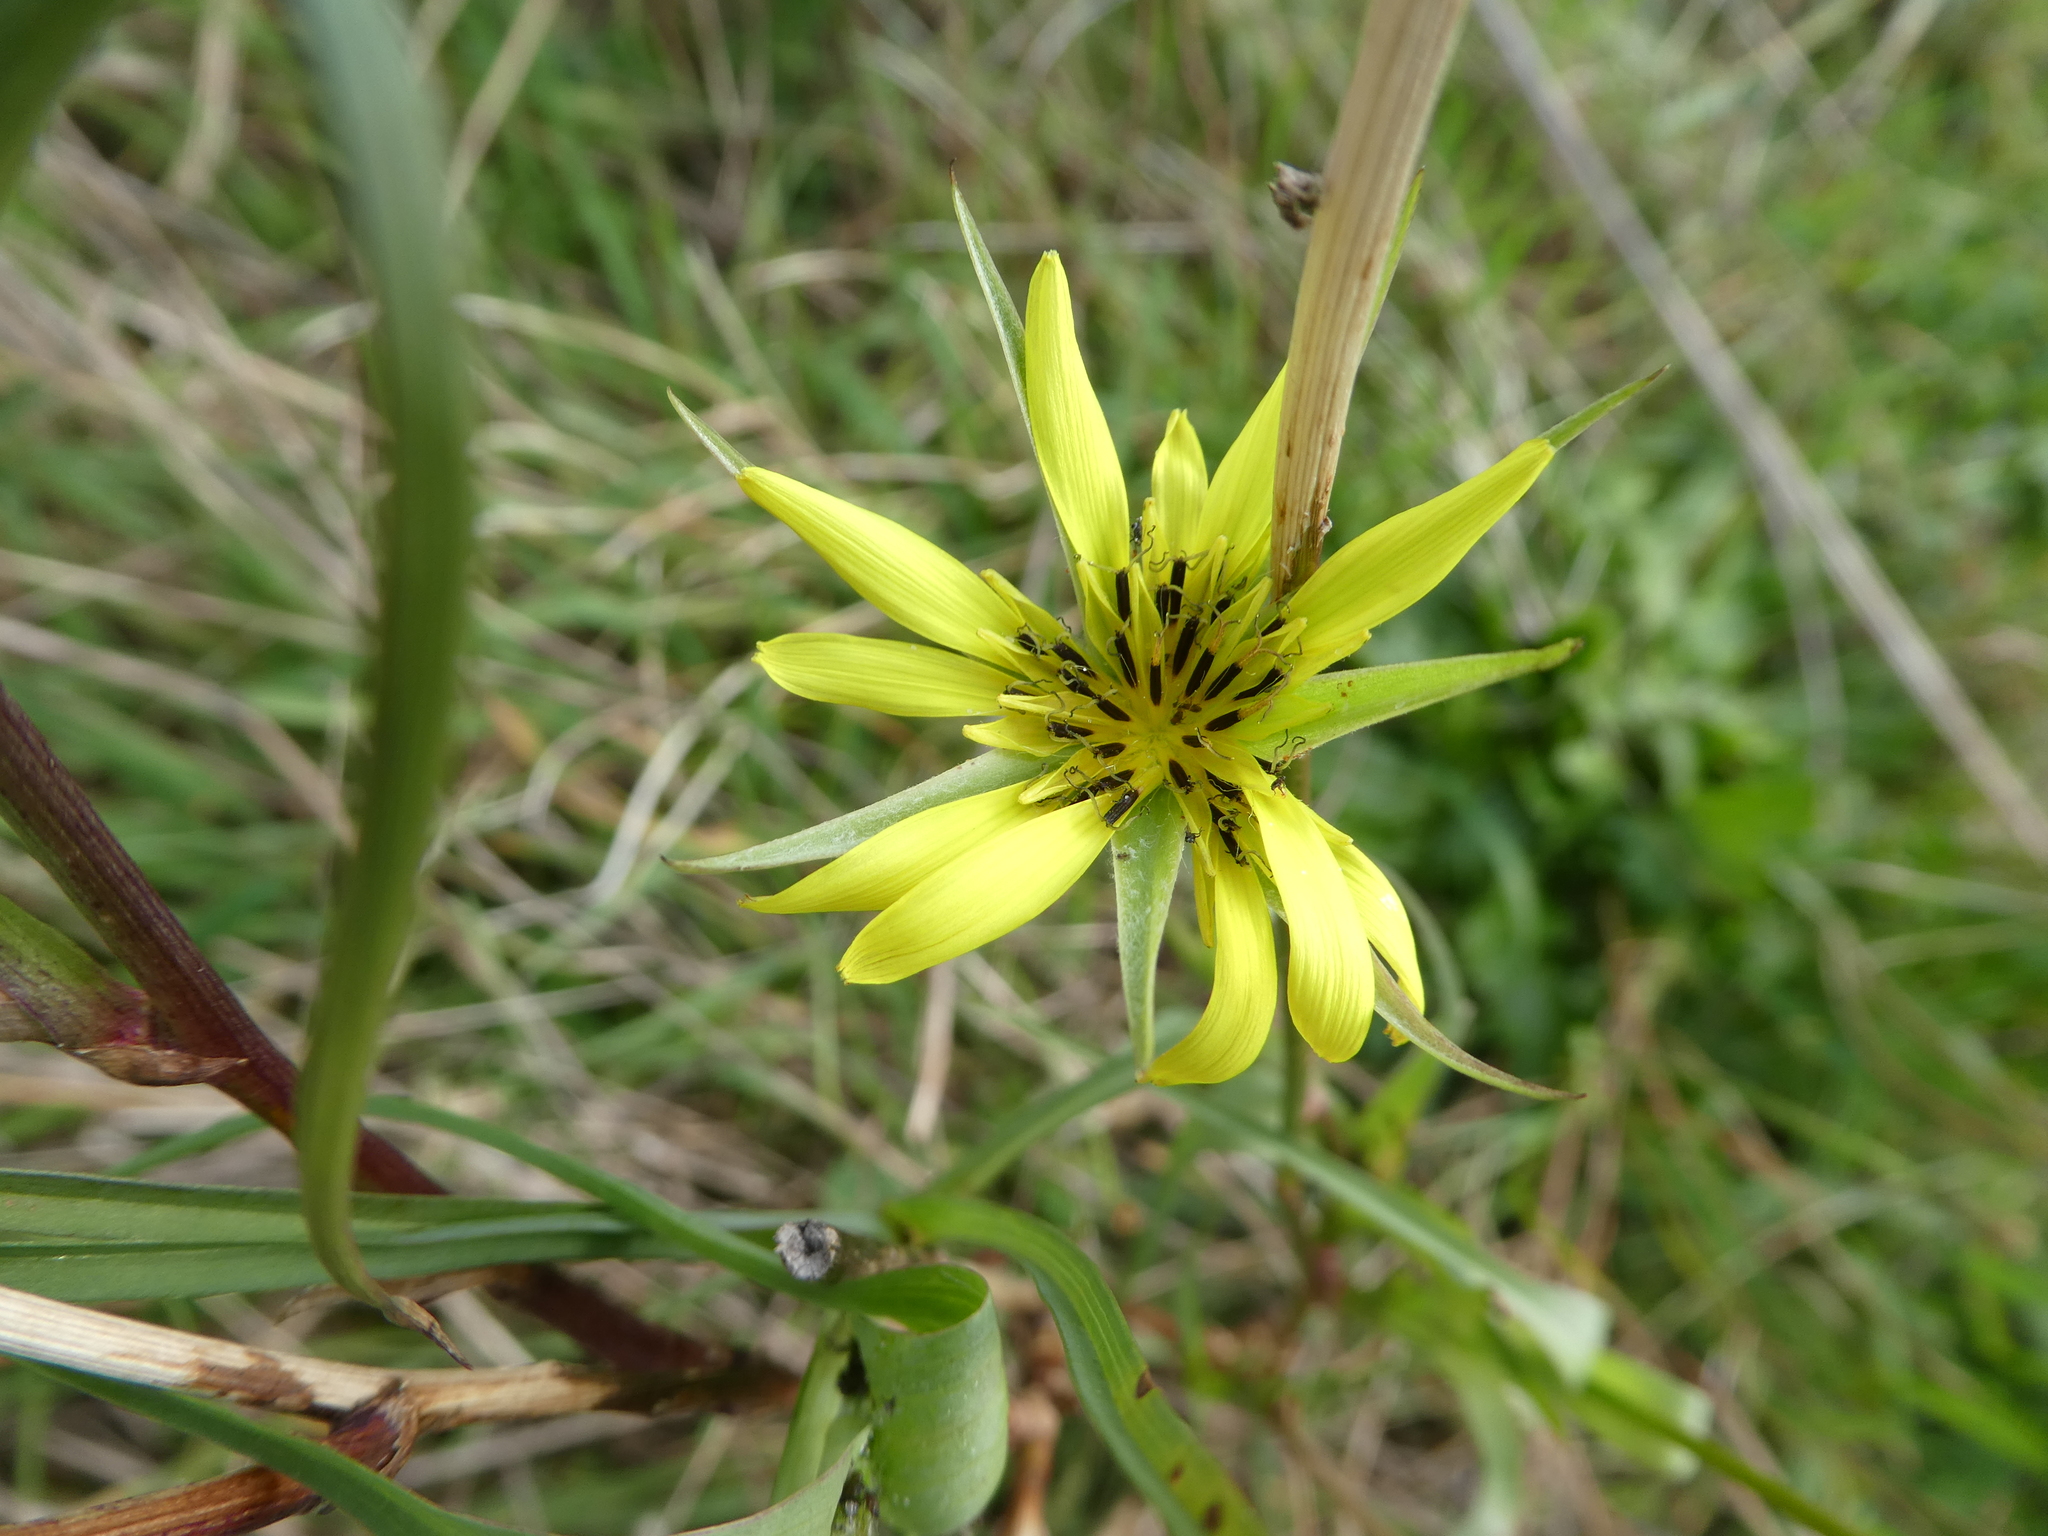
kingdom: Plantae
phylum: Tracheophyta
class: Magnoliopsida
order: Asterales
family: Asteraceae
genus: Tragopogon
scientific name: Tragopogon dubius
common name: Yellow salsify
